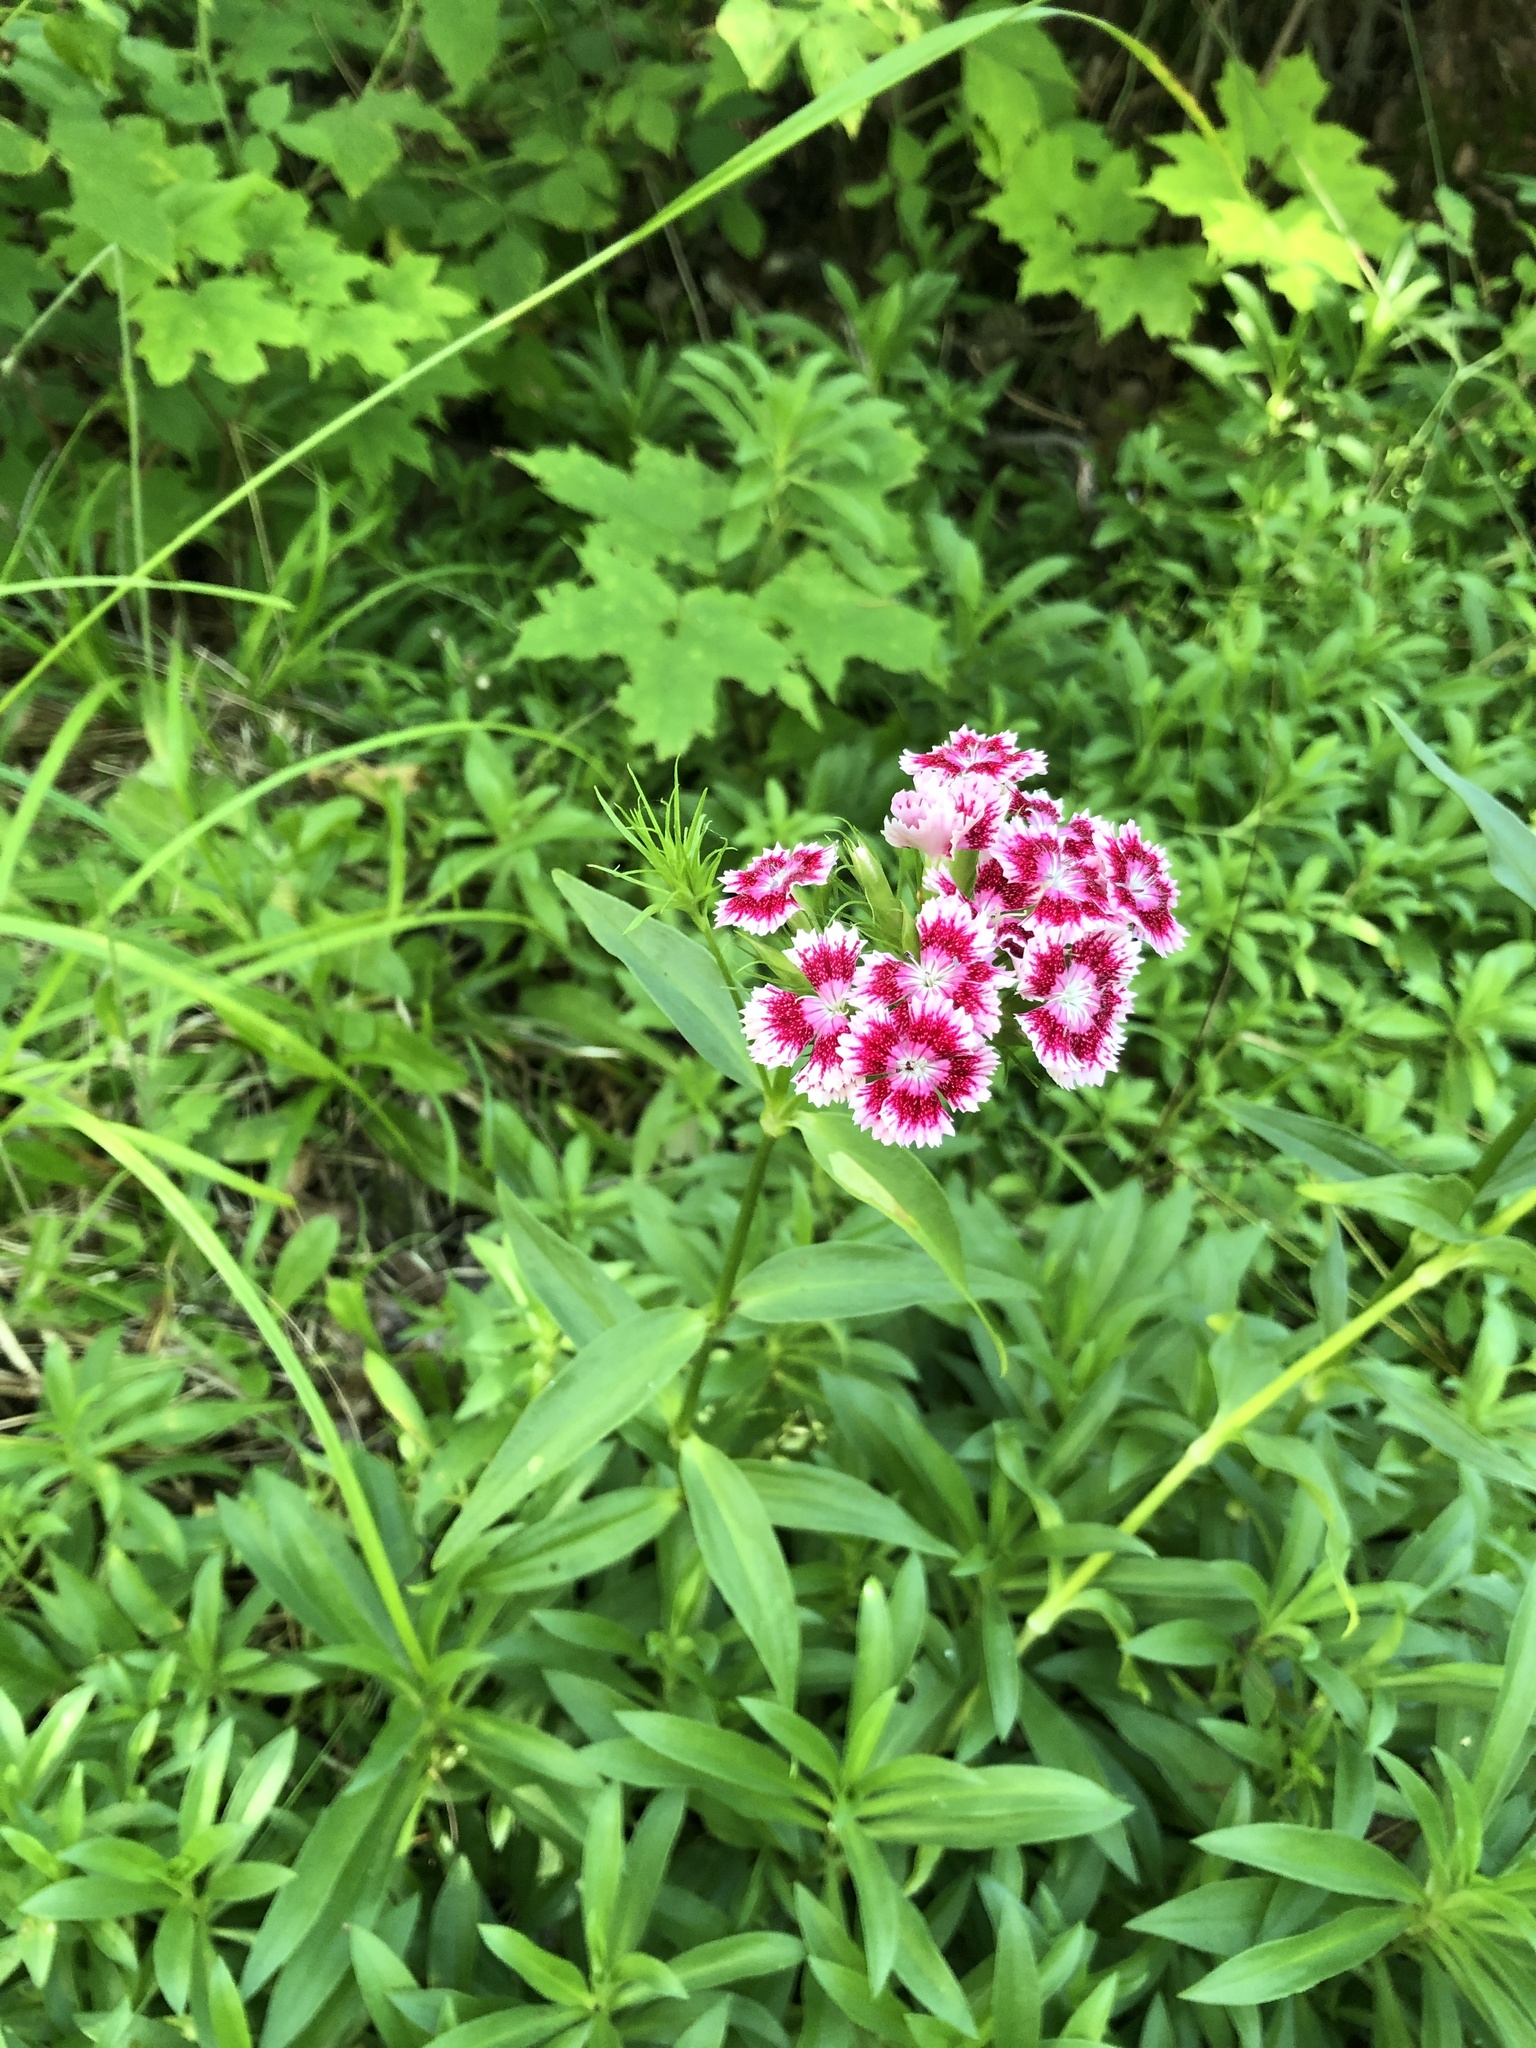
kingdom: Plantae
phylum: Tracheophyta
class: Magnoliopsida
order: Caryophyllales
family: Caryophyllaceae
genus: Dianthus
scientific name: Dianthus barbatus
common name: Sweet-william
